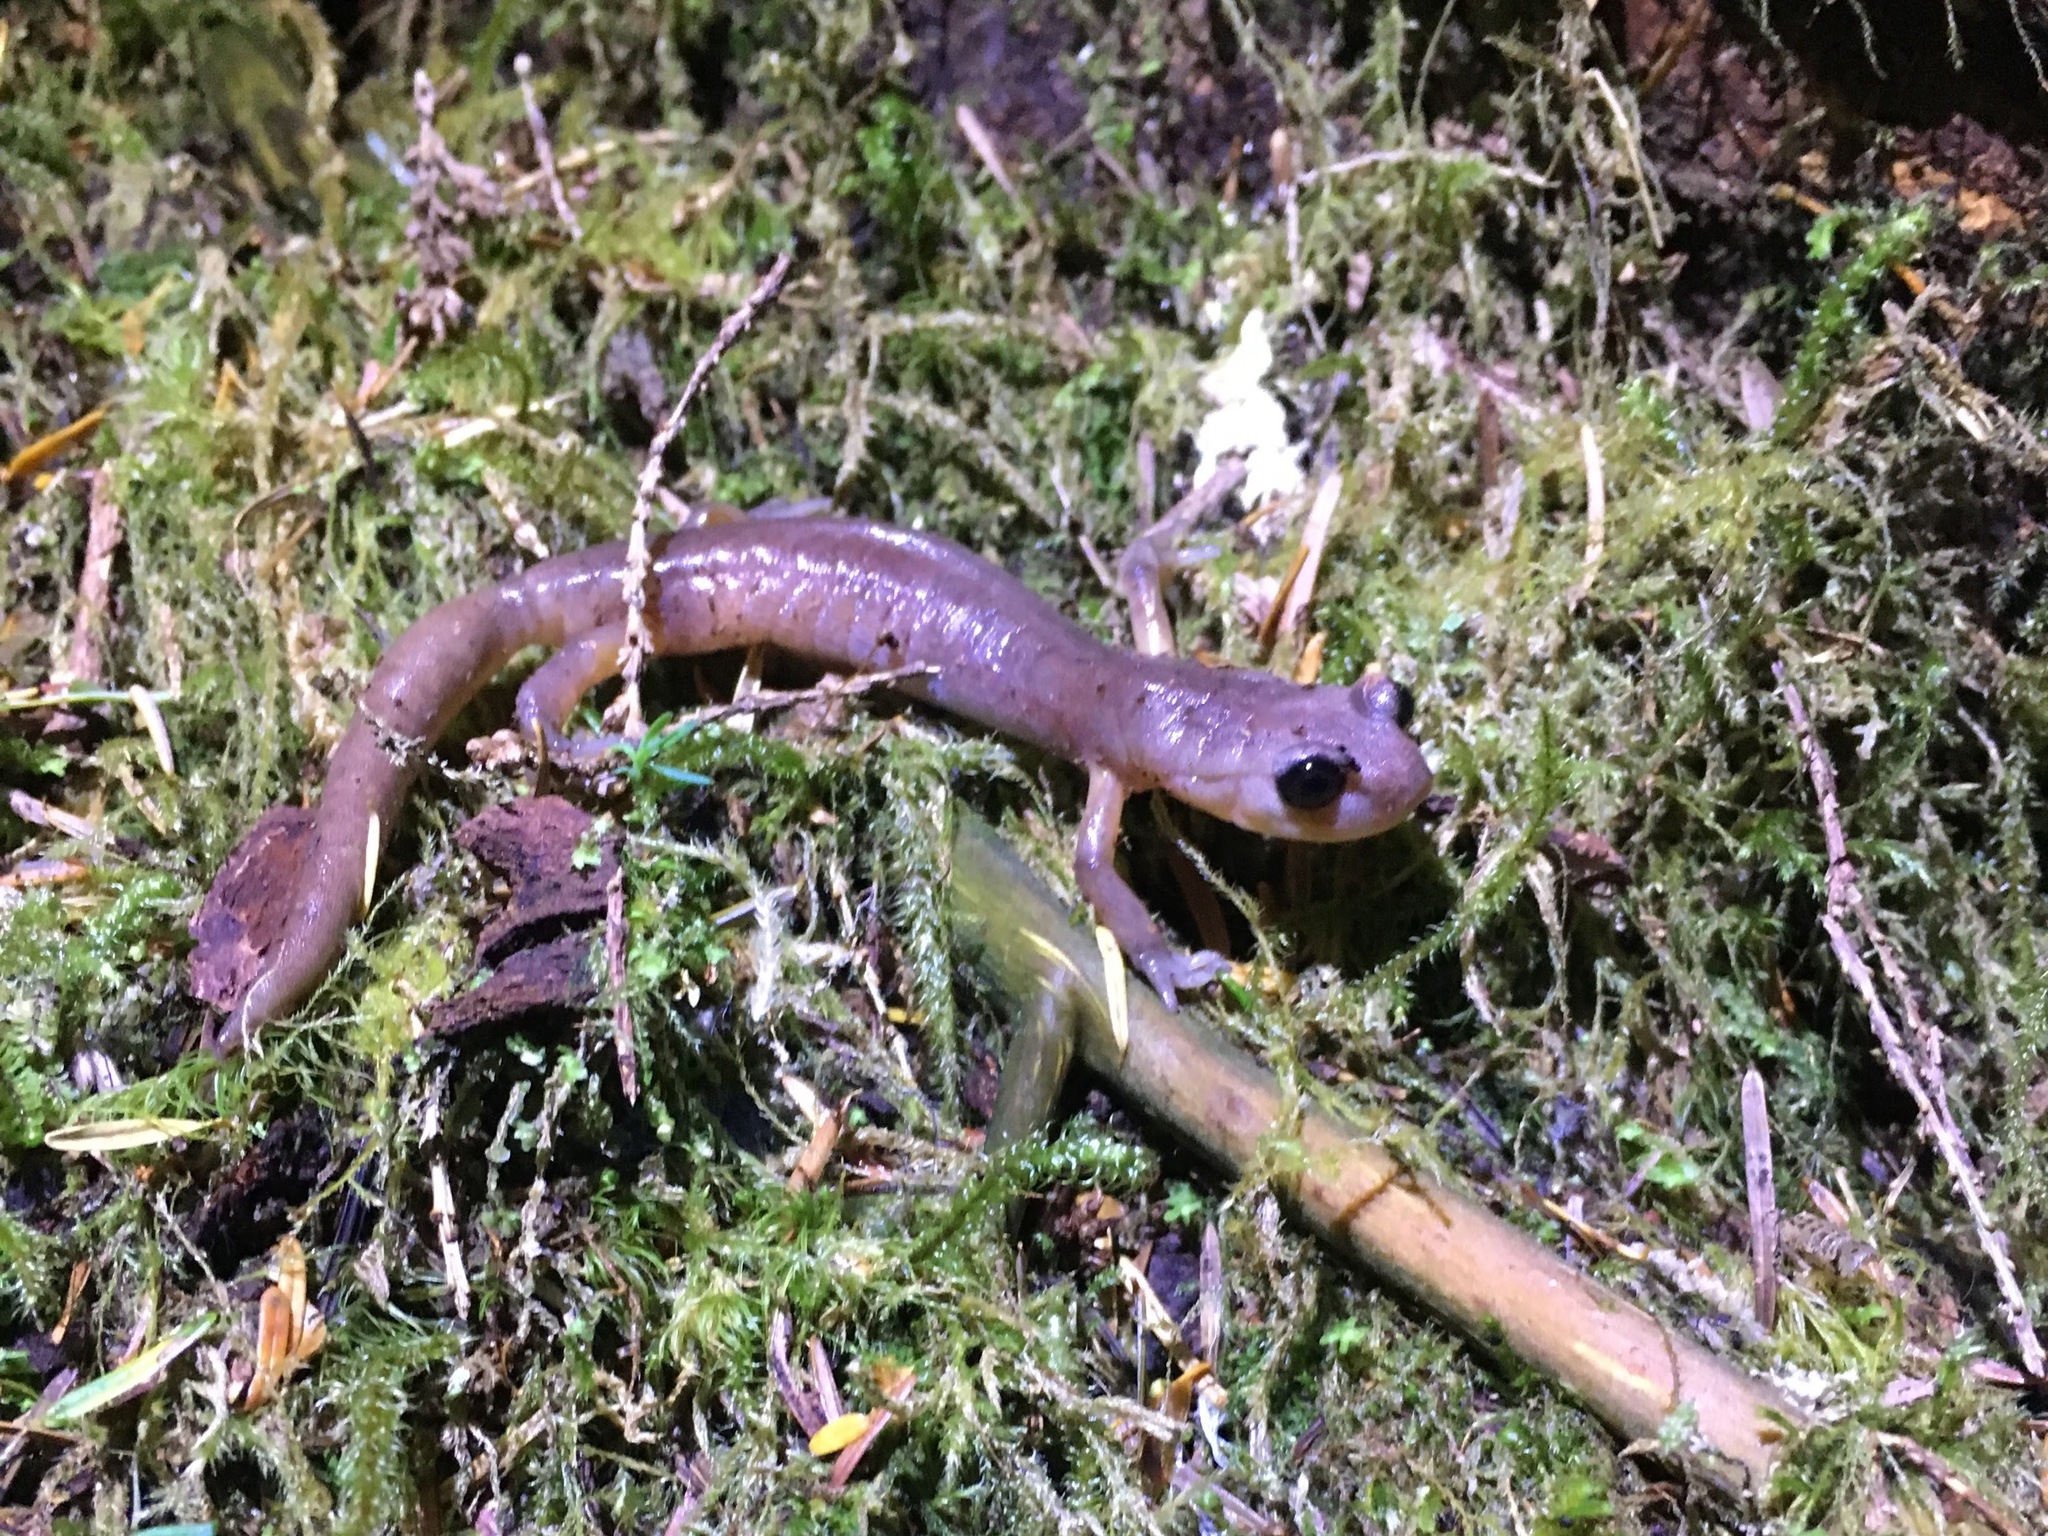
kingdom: Animalia
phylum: Chordata
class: Amphibia
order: Caudata
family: Plethodontidae
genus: Ensatina
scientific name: Ensatina eschscholtzii
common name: Ensatina
